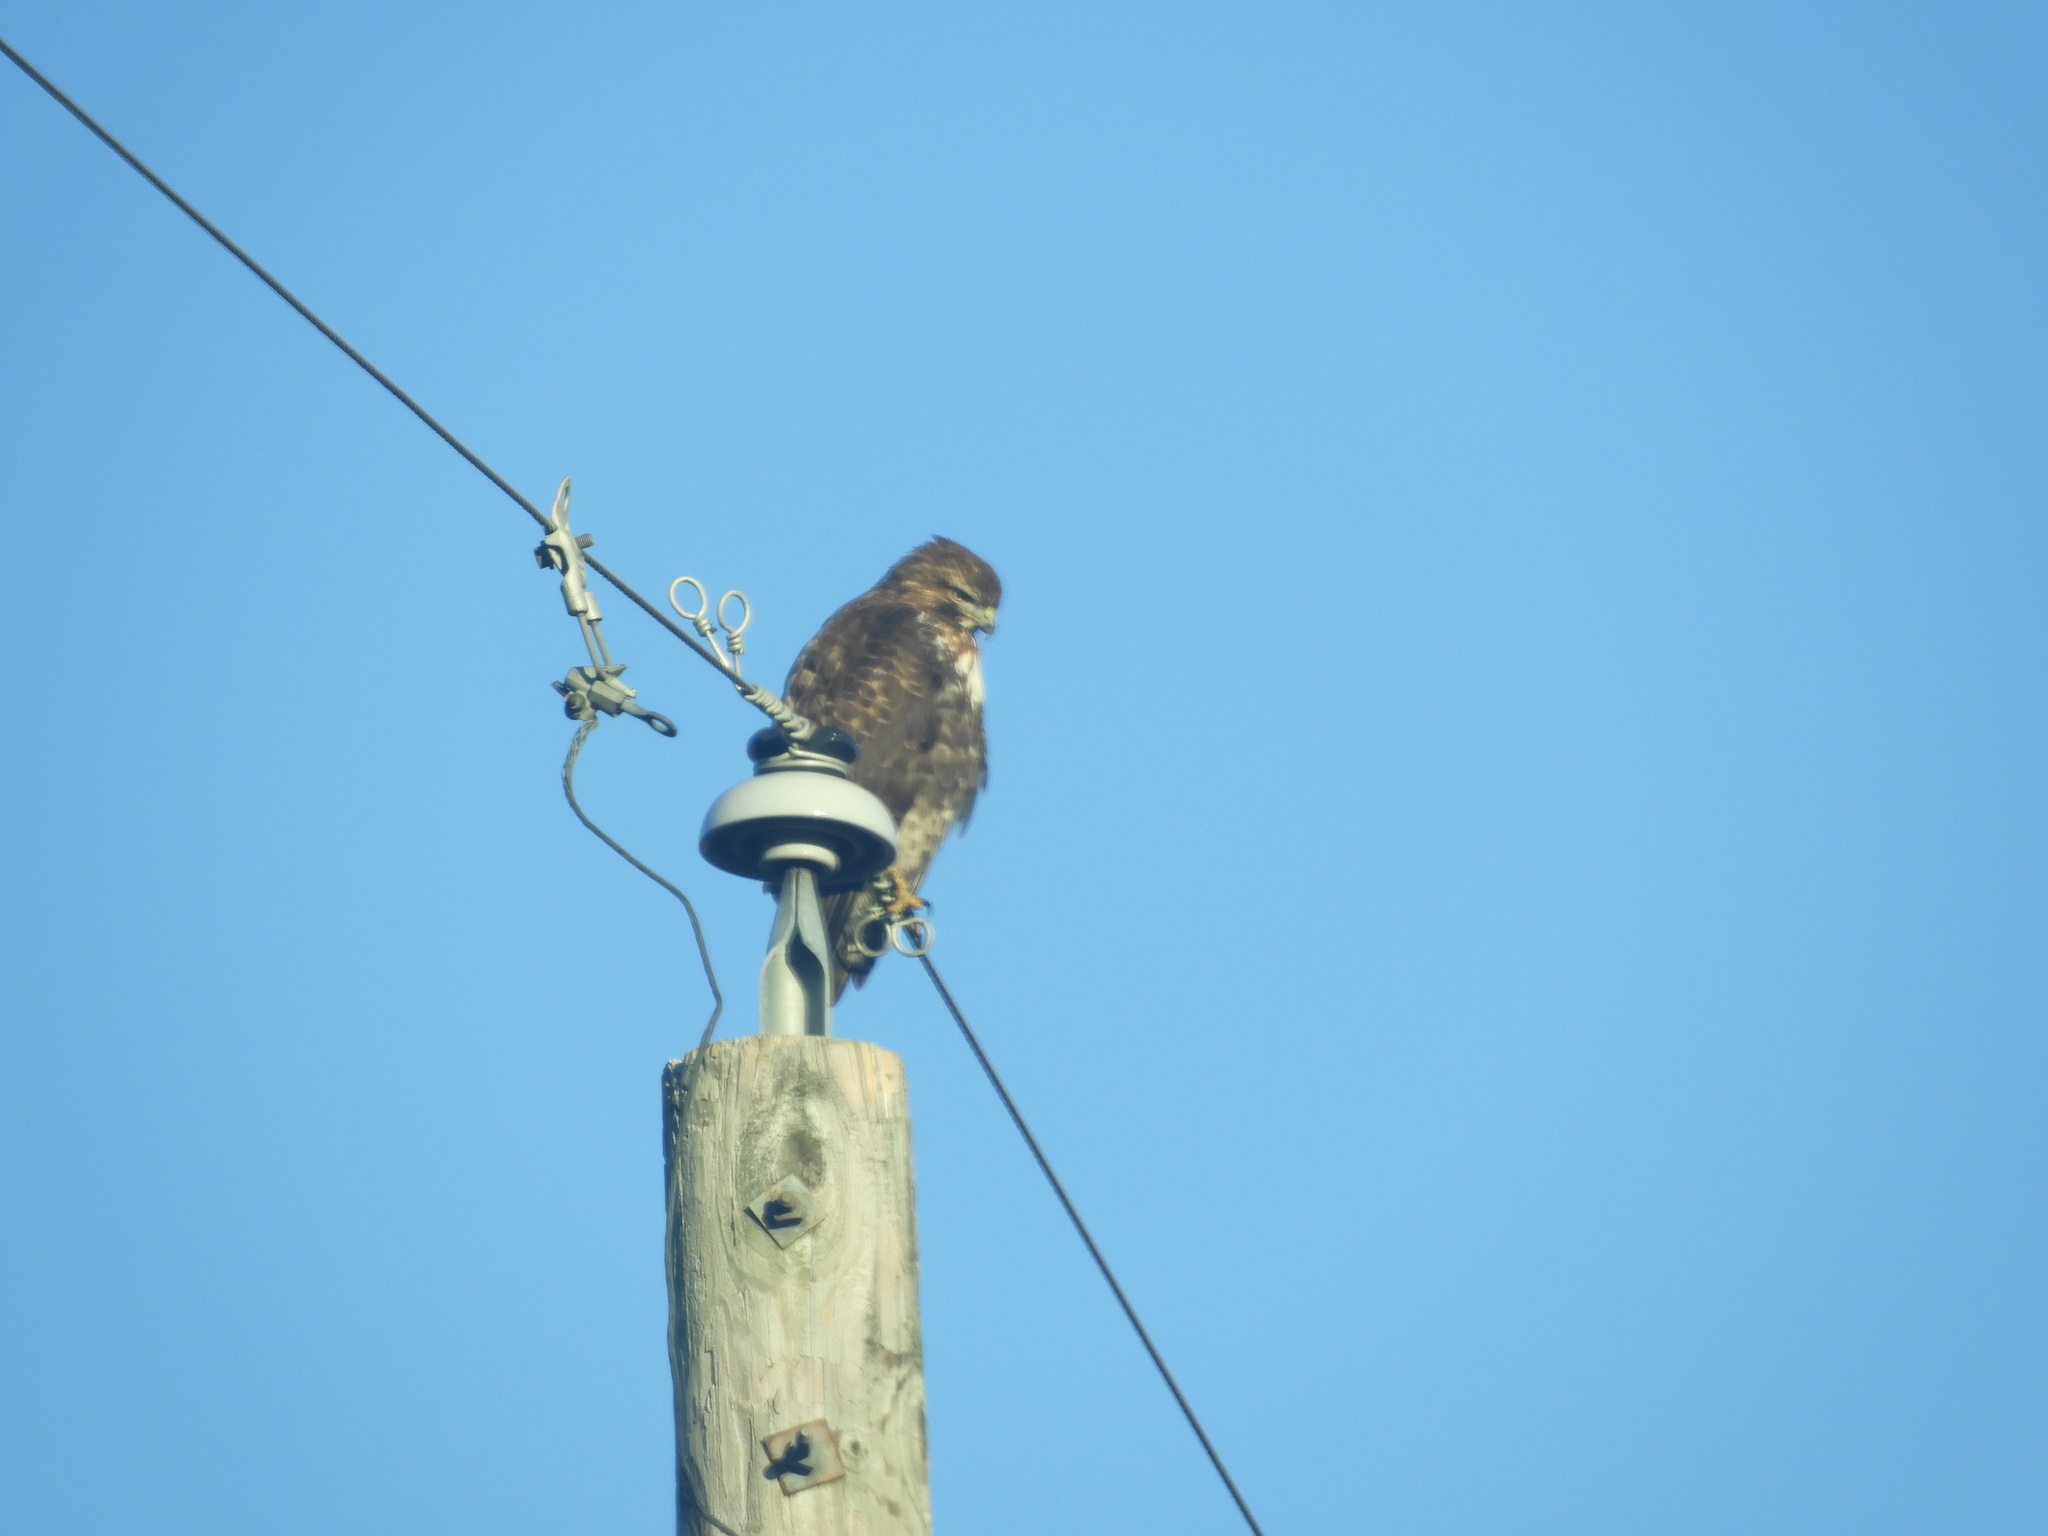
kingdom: Animalia
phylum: Chordata
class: Aves
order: Accipitriformes
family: Accipitridae
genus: Buteo
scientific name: Buteo jamaicensis
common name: Red-tailed hawk
